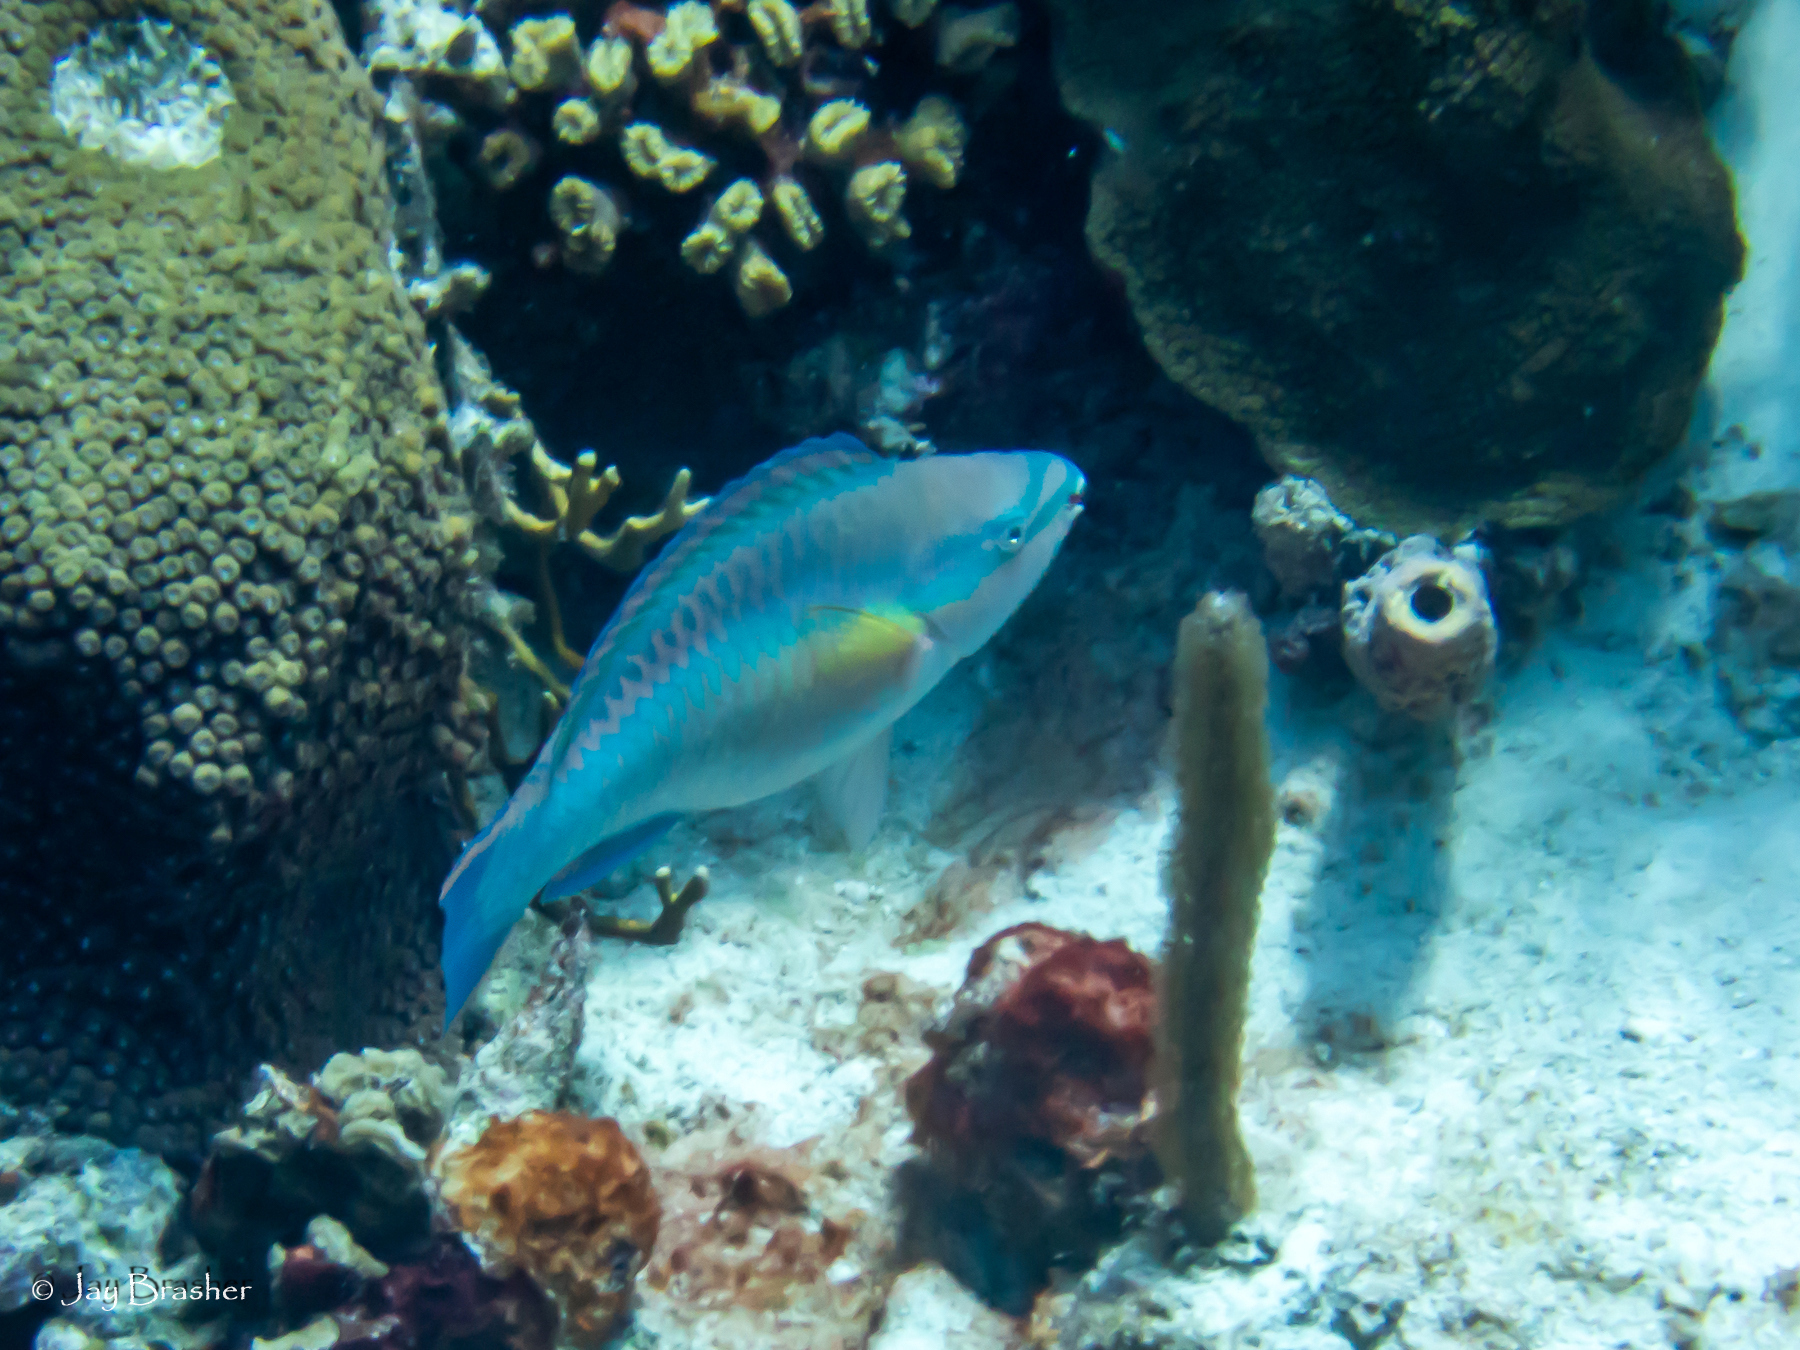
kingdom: Animalia
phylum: Cnidaria
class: Anthozoa
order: Scleractinia
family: Meandrinidae
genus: Eusmilia
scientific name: Eusmilia fastigiata
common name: Smooth flower coral
